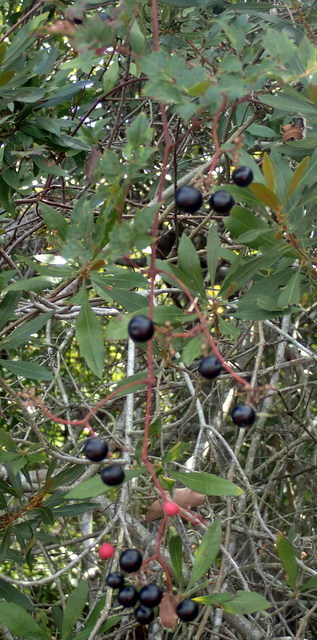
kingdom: Plantae
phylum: Tracheophyta
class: Magnoliopsida
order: Vitales
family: Vitaceae
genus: Nekemias
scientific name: Nekemias arborea
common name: Peppervine
